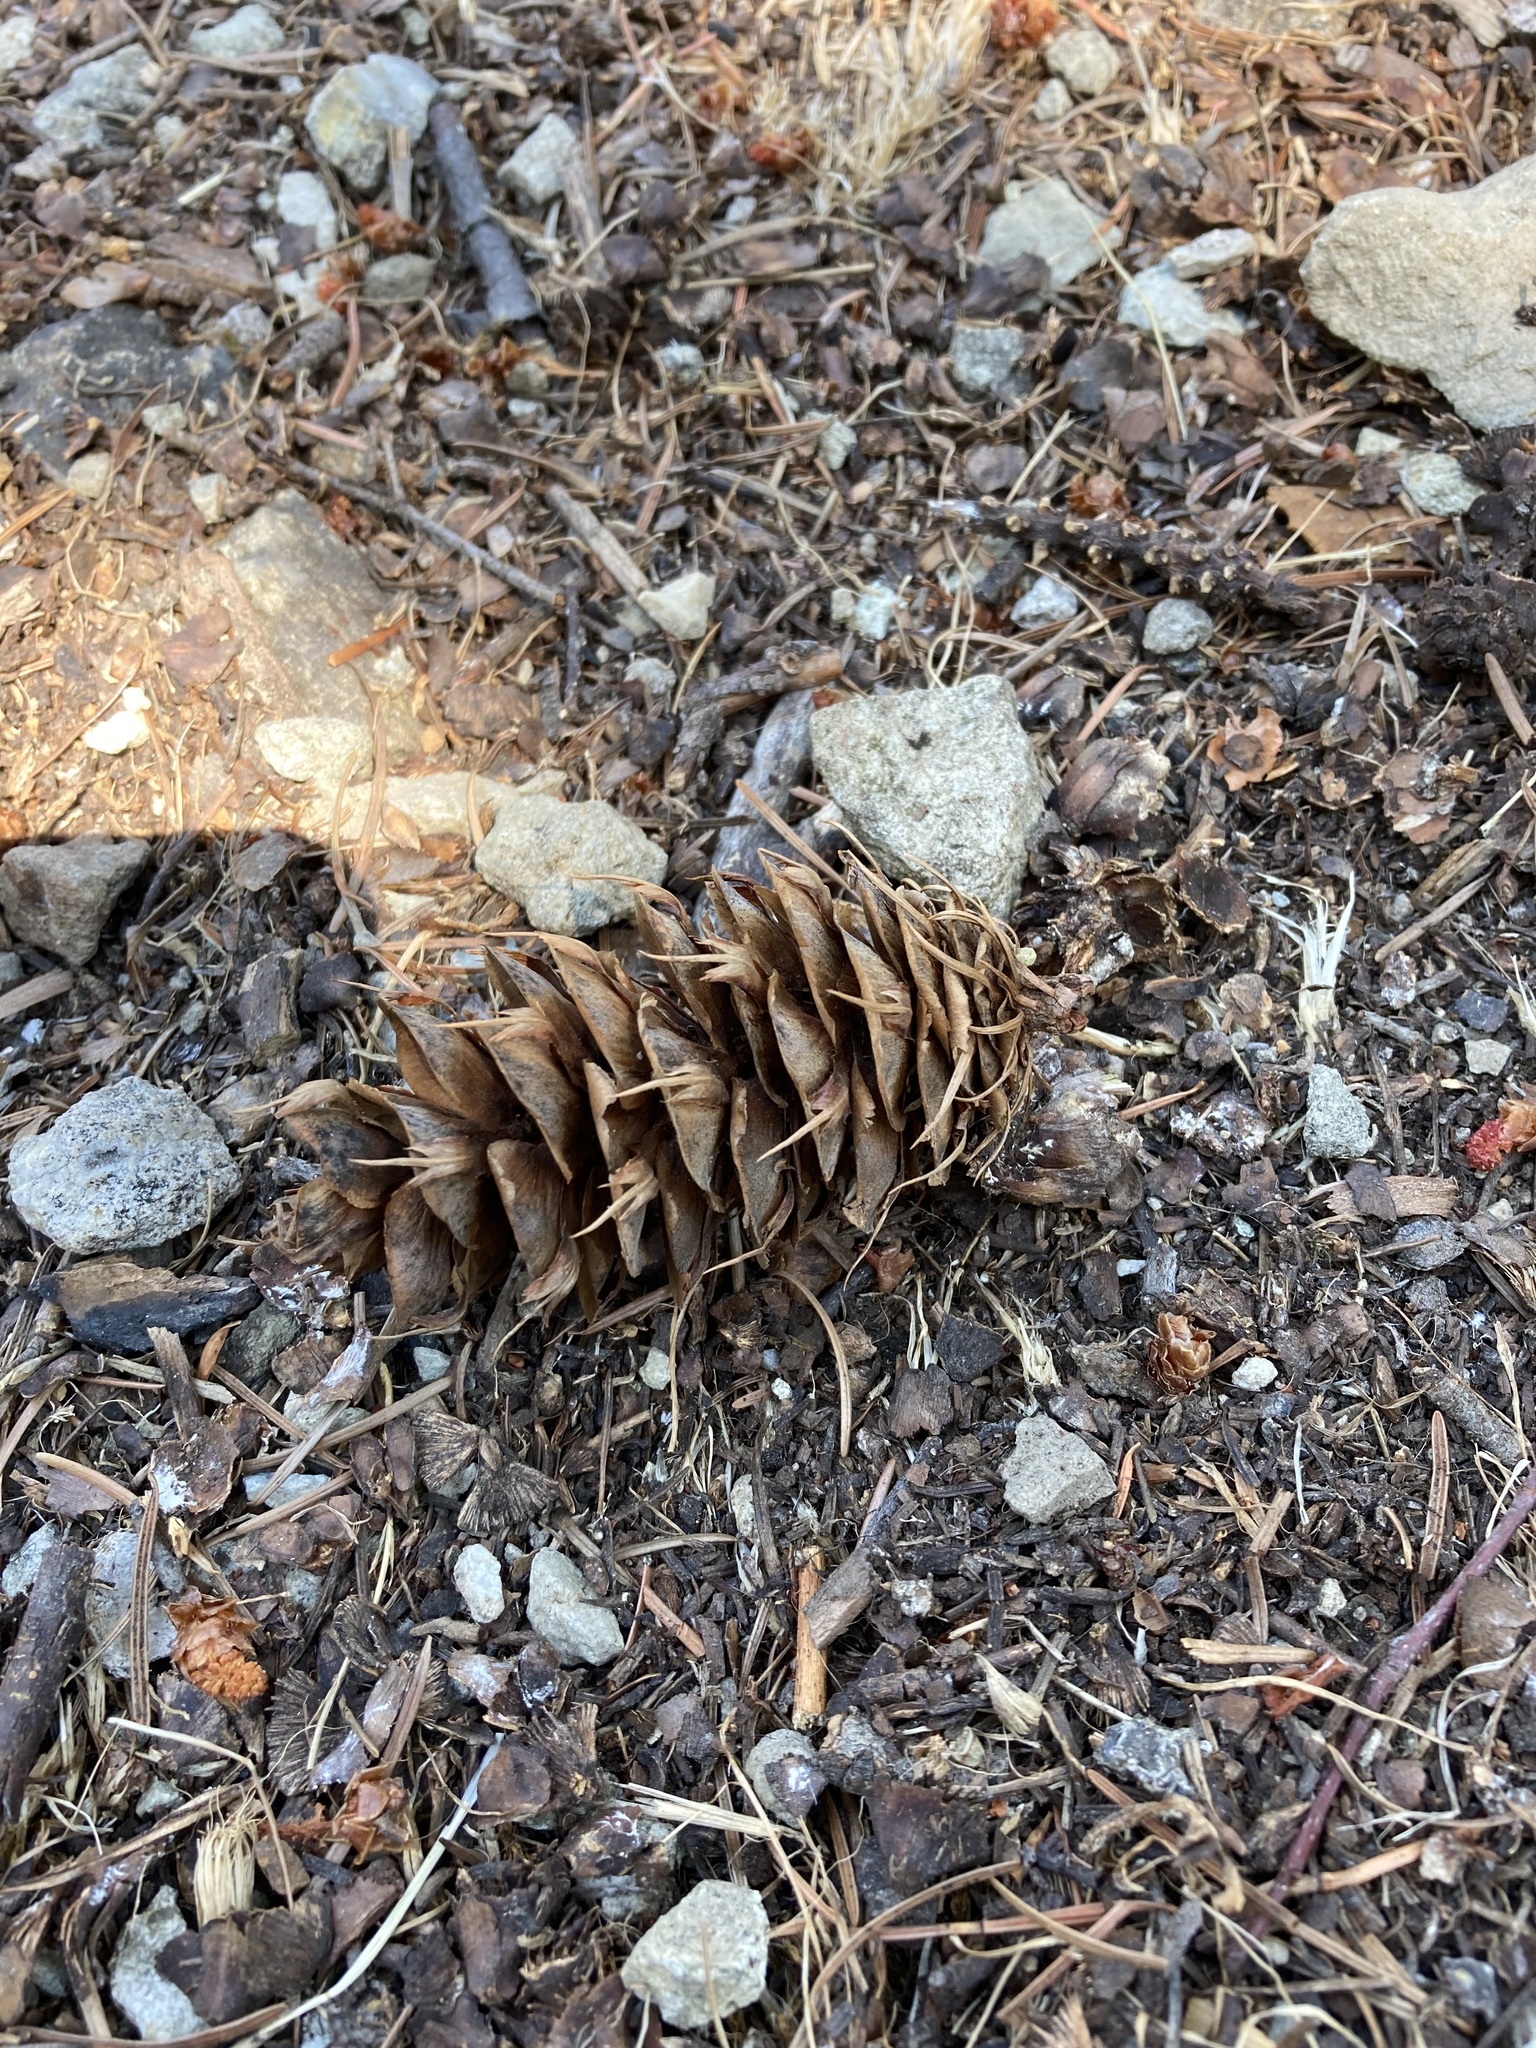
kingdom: Plantae
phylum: Tracheophyta
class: Pinopsida
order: Pinales
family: Pinaceae
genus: Pseudotsuga
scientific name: Pseudotsuga menziesii
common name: Douglas fir
